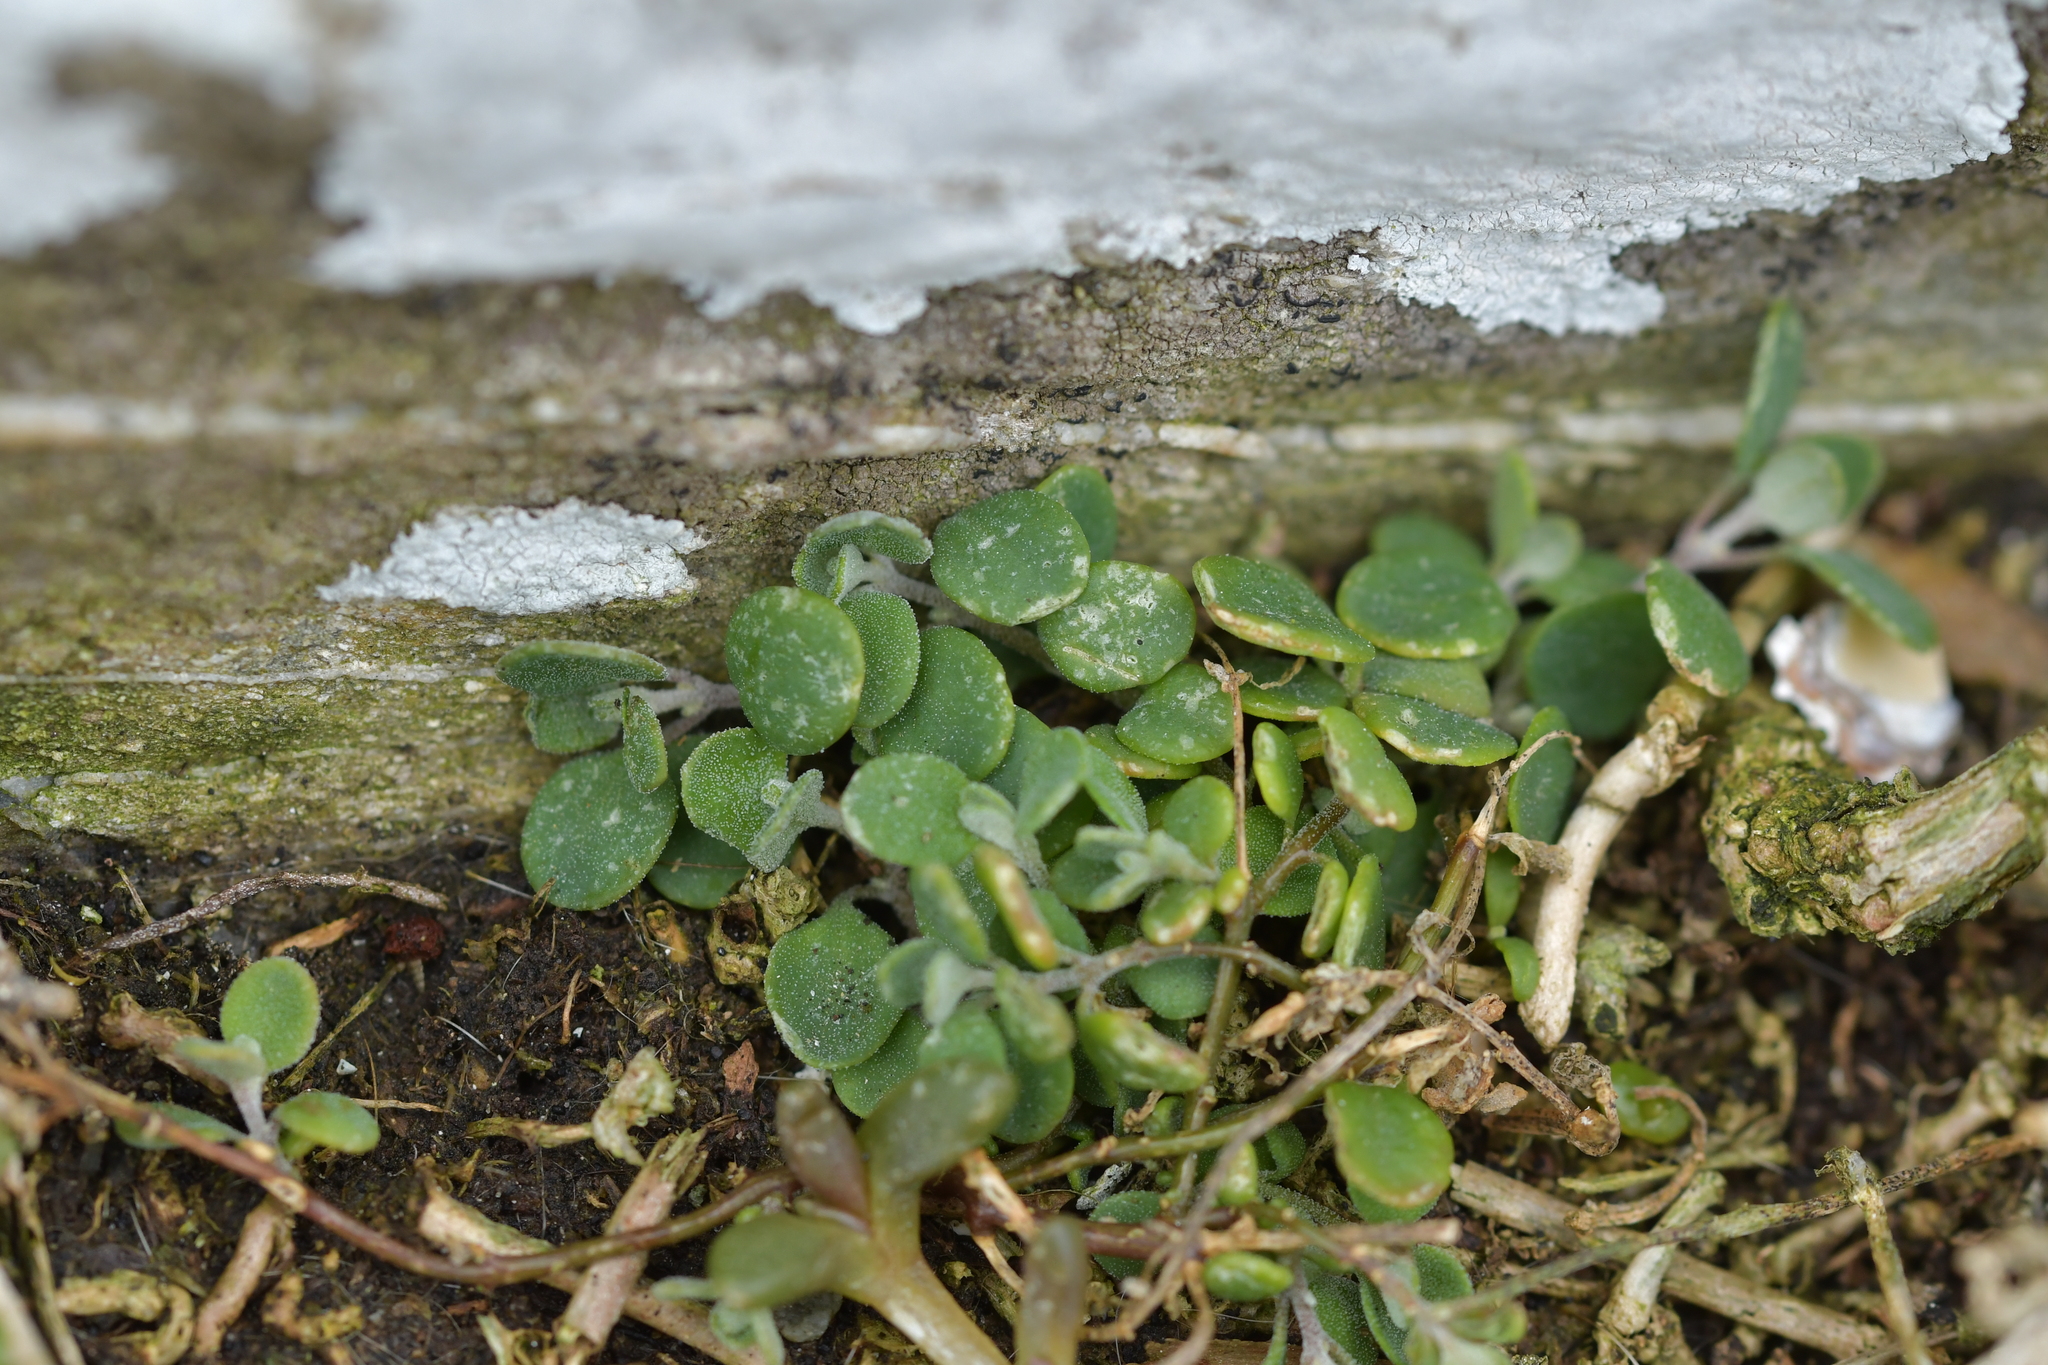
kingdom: Plantae
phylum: Tracheophyta
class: Magnoliopsida
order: Caryophyllales
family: Amaranthaceae
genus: Chenopodium
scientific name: Chenopodium trigonon
